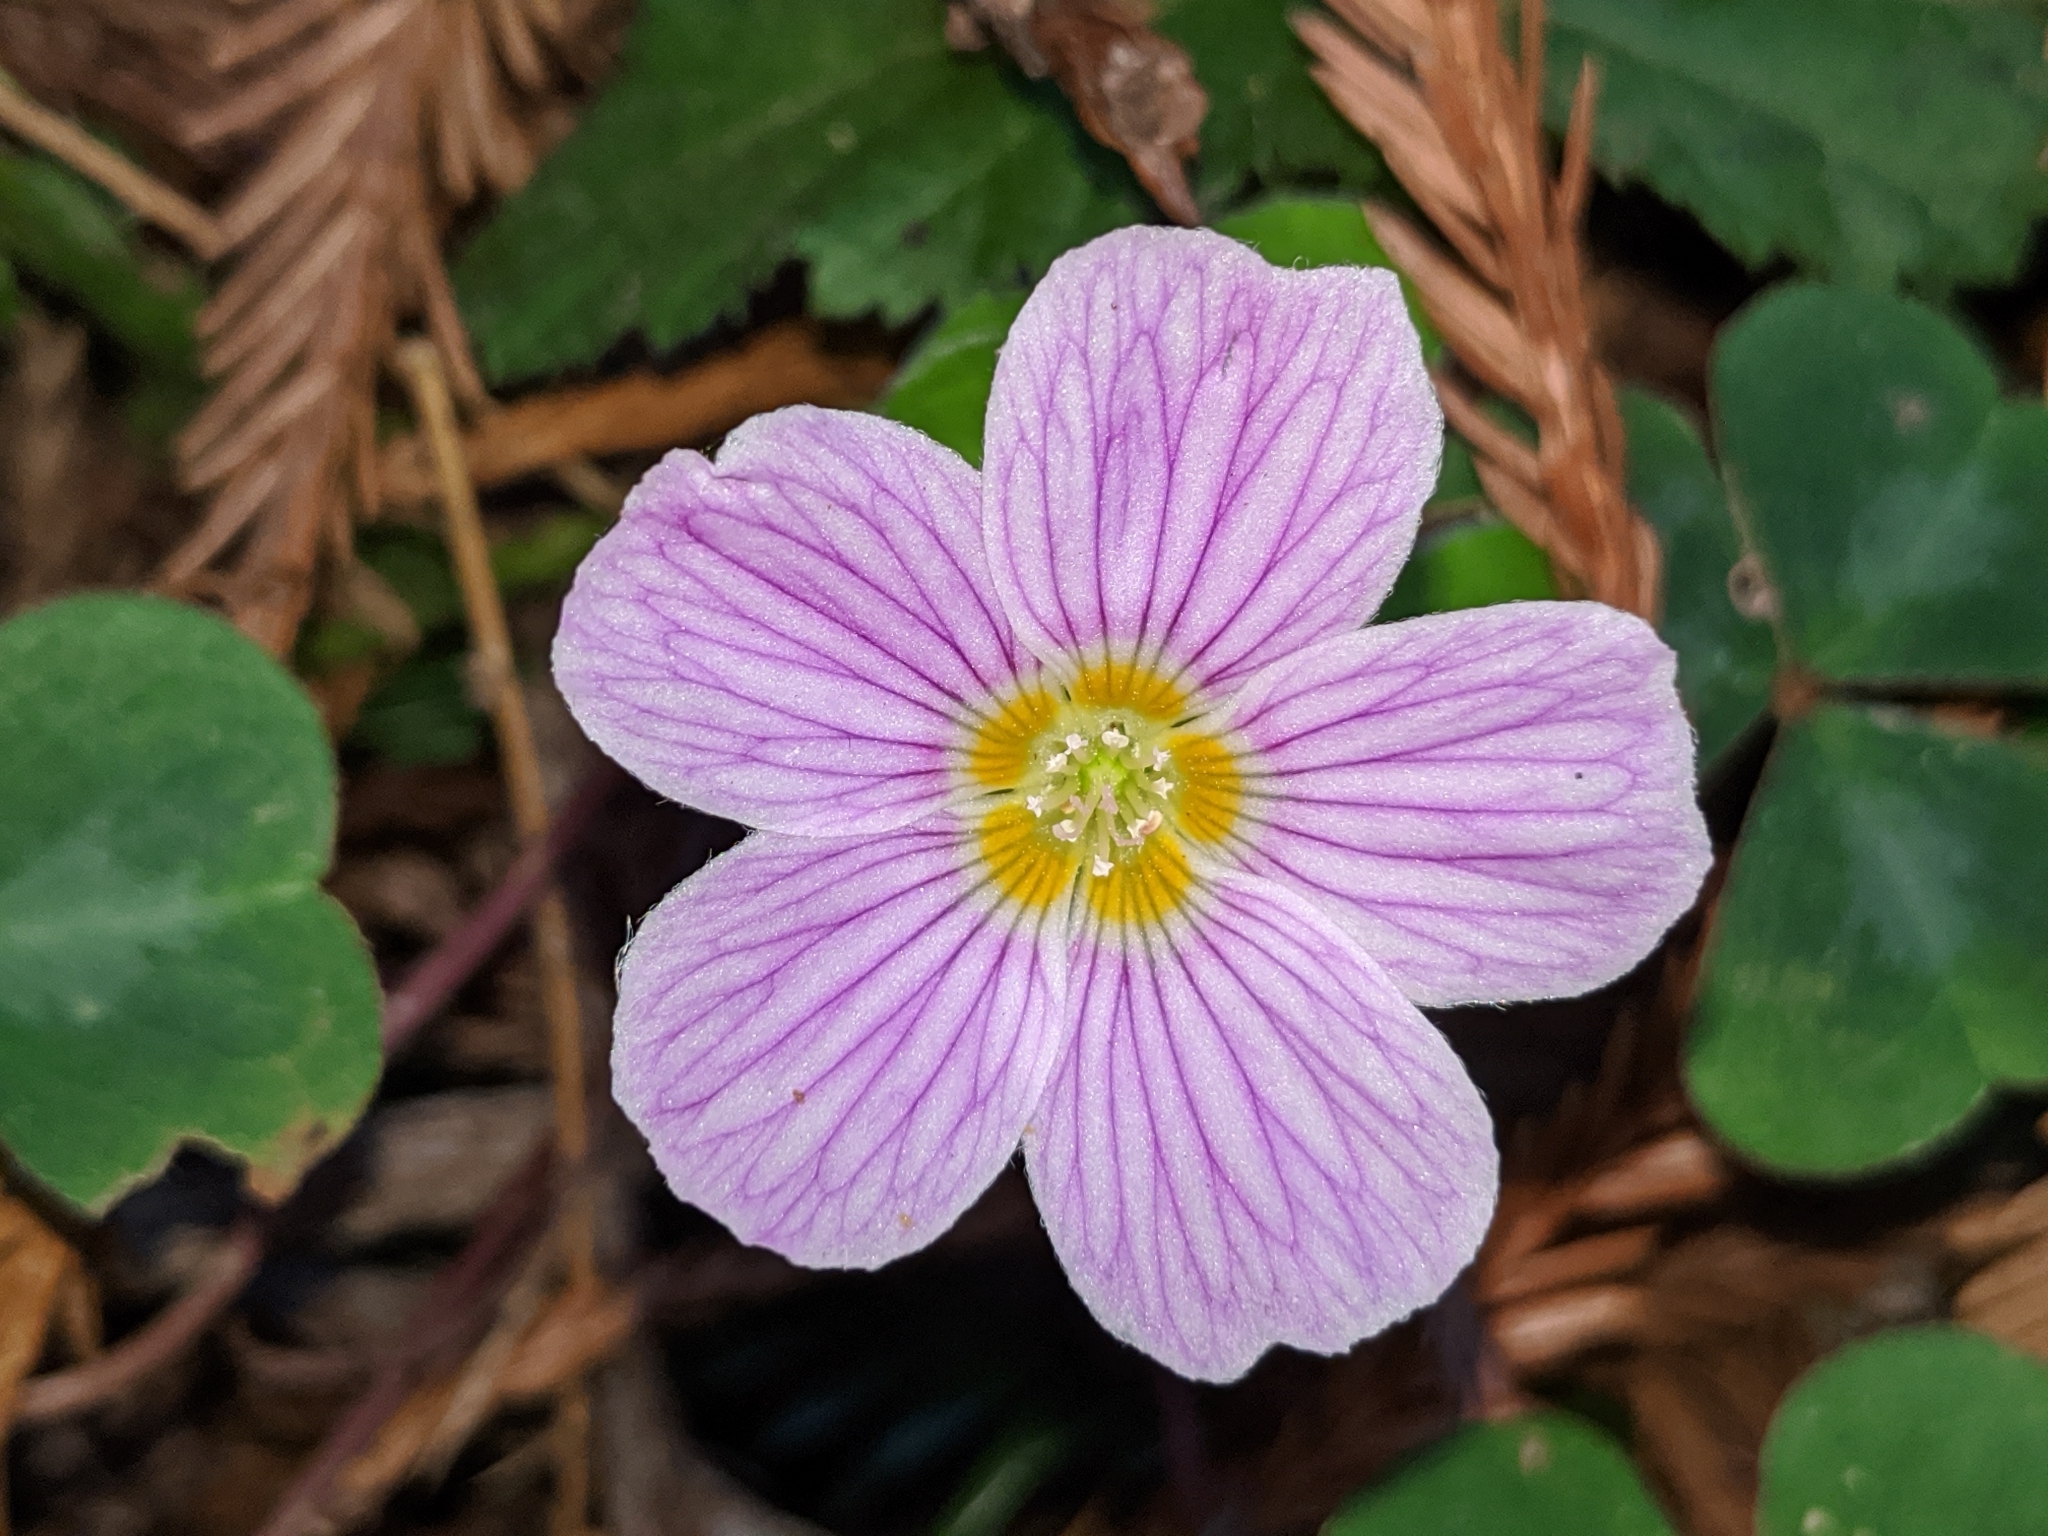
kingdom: Plantae
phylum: Tracheophyta
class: Magnoliopsida
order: Oxalidales
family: Oxalidaceae
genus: Oxalis
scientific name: Oxalis oregana
